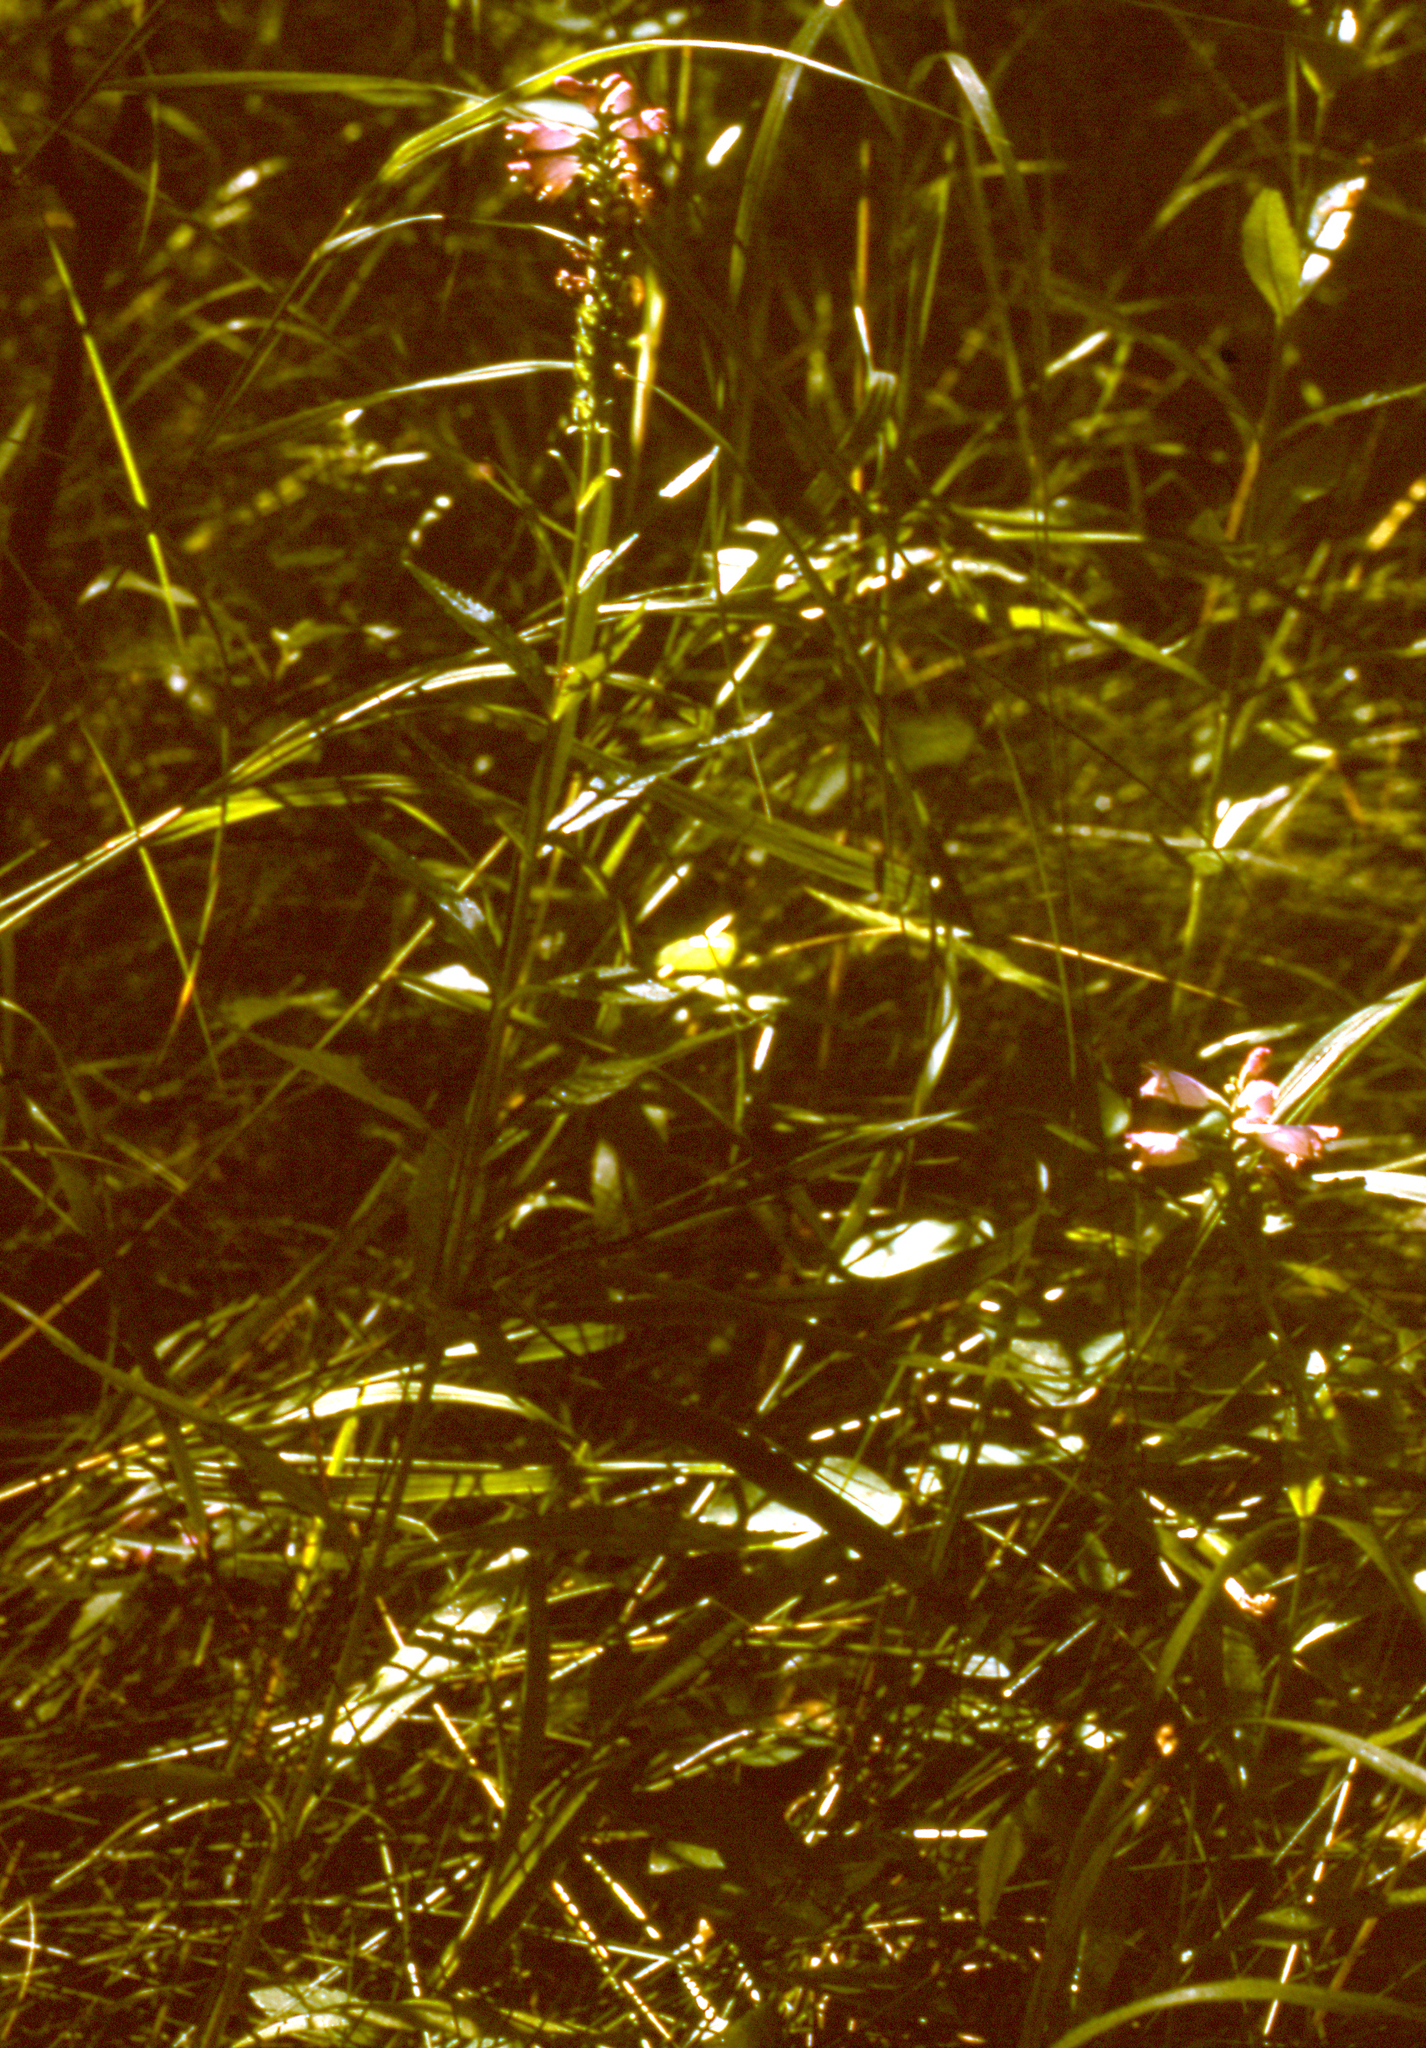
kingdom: Plantae
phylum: Tracheophyta
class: Magnoliopsida
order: Lamiales
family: Lamiaceae
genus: Physostegia
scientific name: Physostegia virginiana
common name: Obedient-plant
